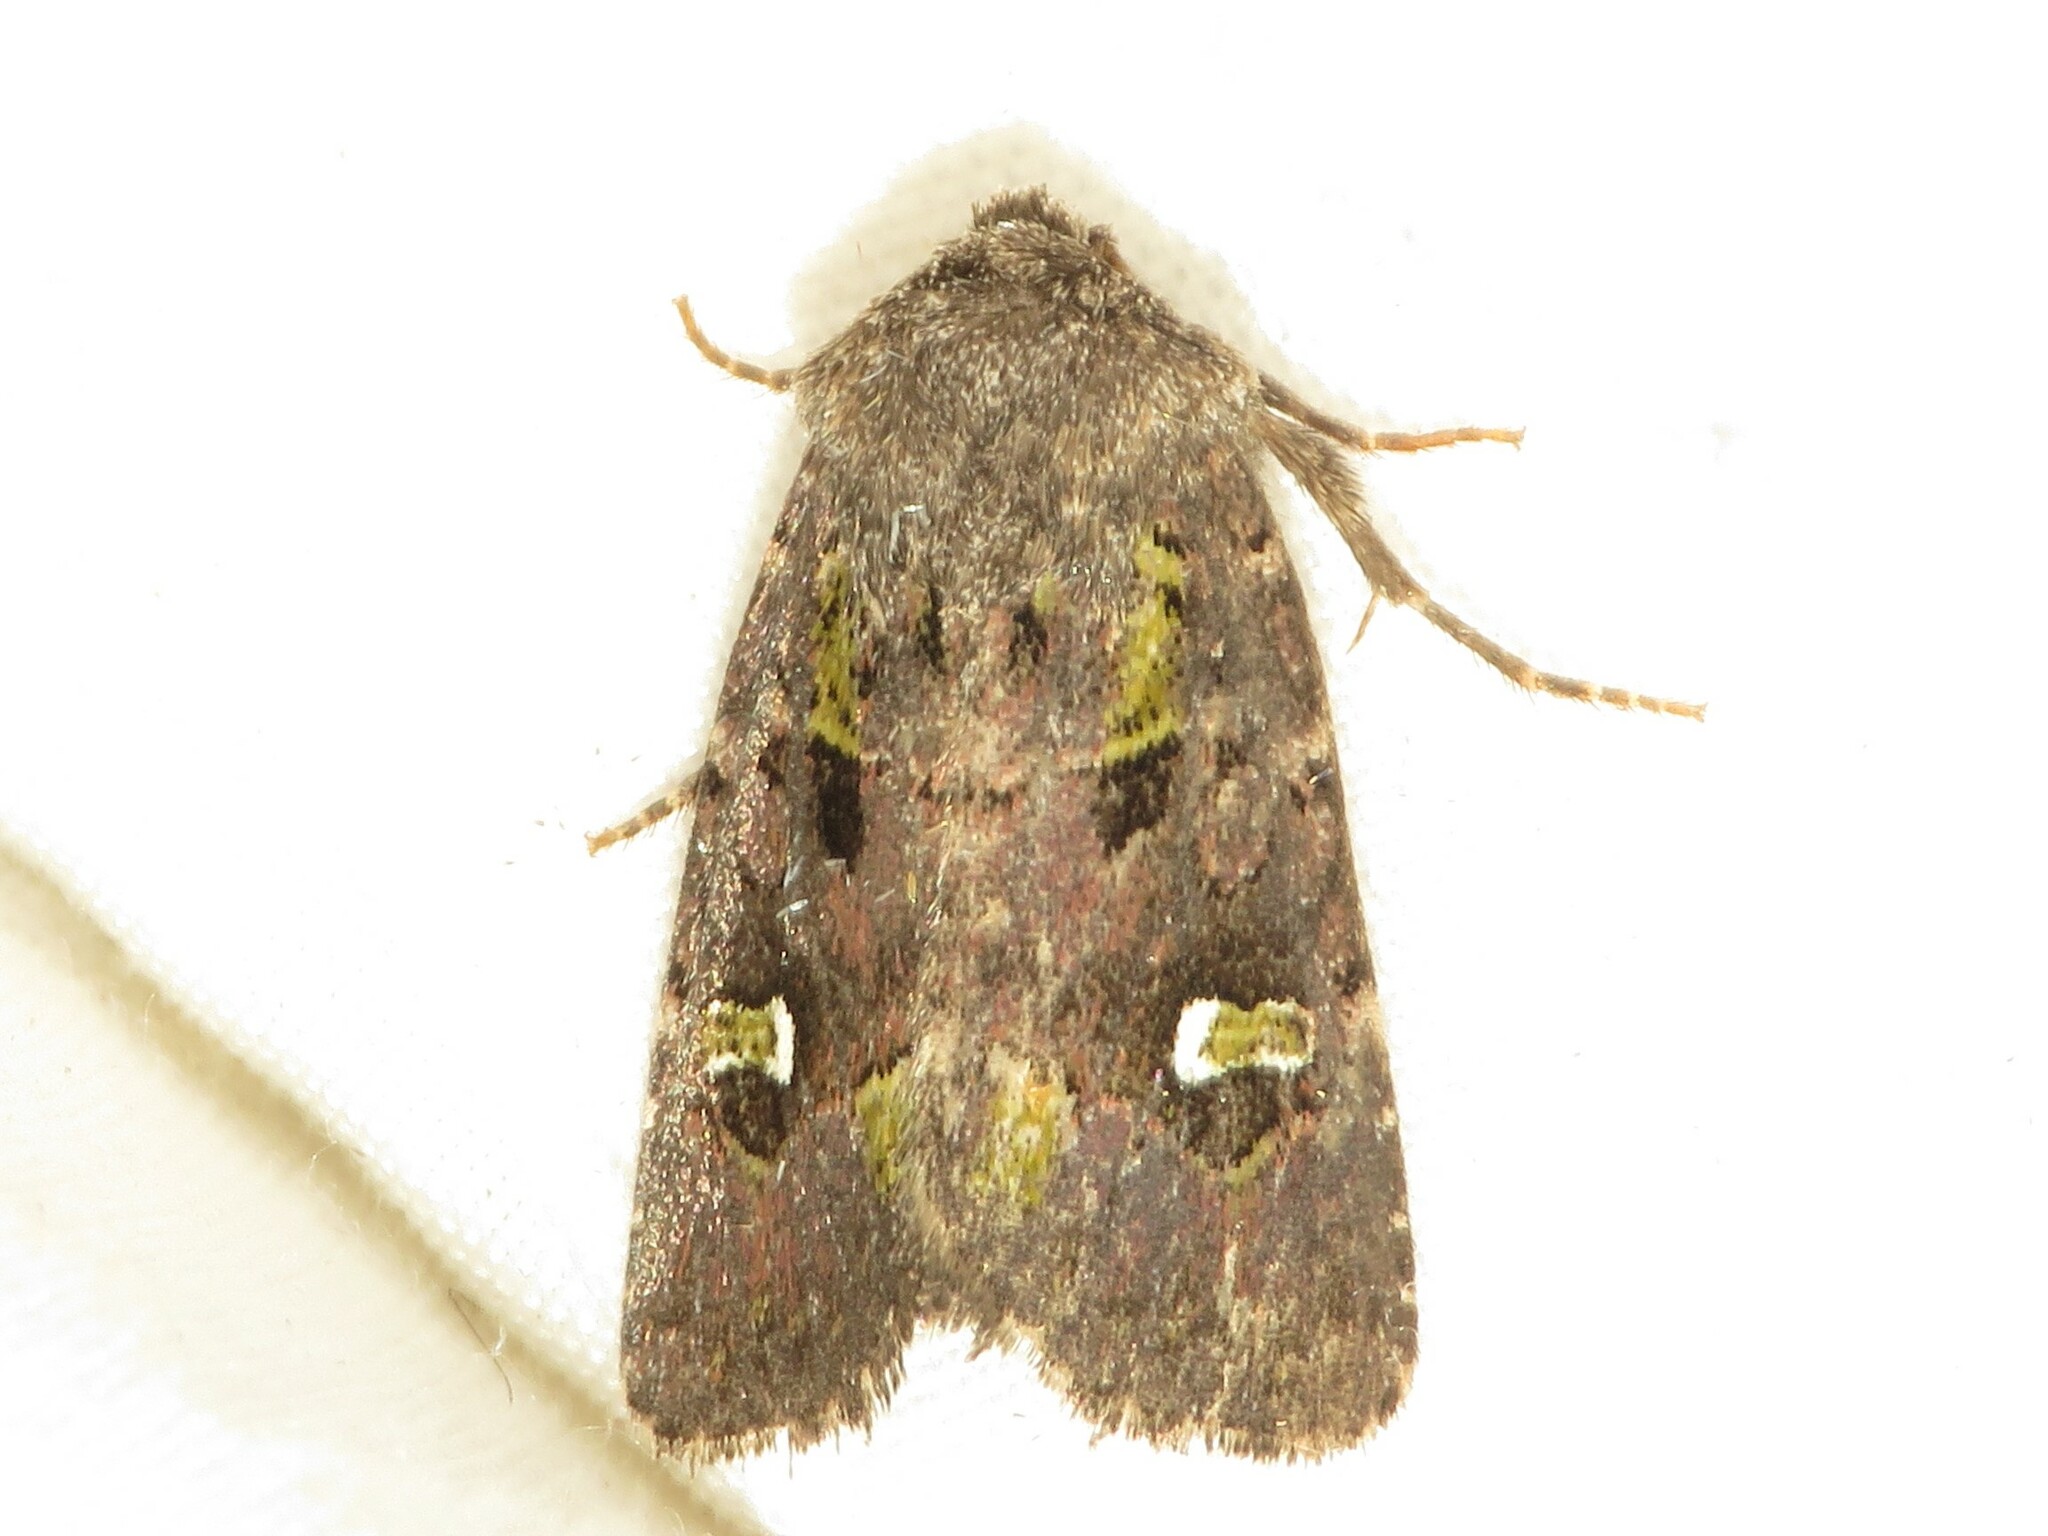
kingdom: Animalia
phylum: Arthropoda
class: Insecta
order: Lepidoptera
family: Noctuidae
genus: Lacinipolia
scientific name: Lacinipolia renigera
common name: Kidney-spotted minor
